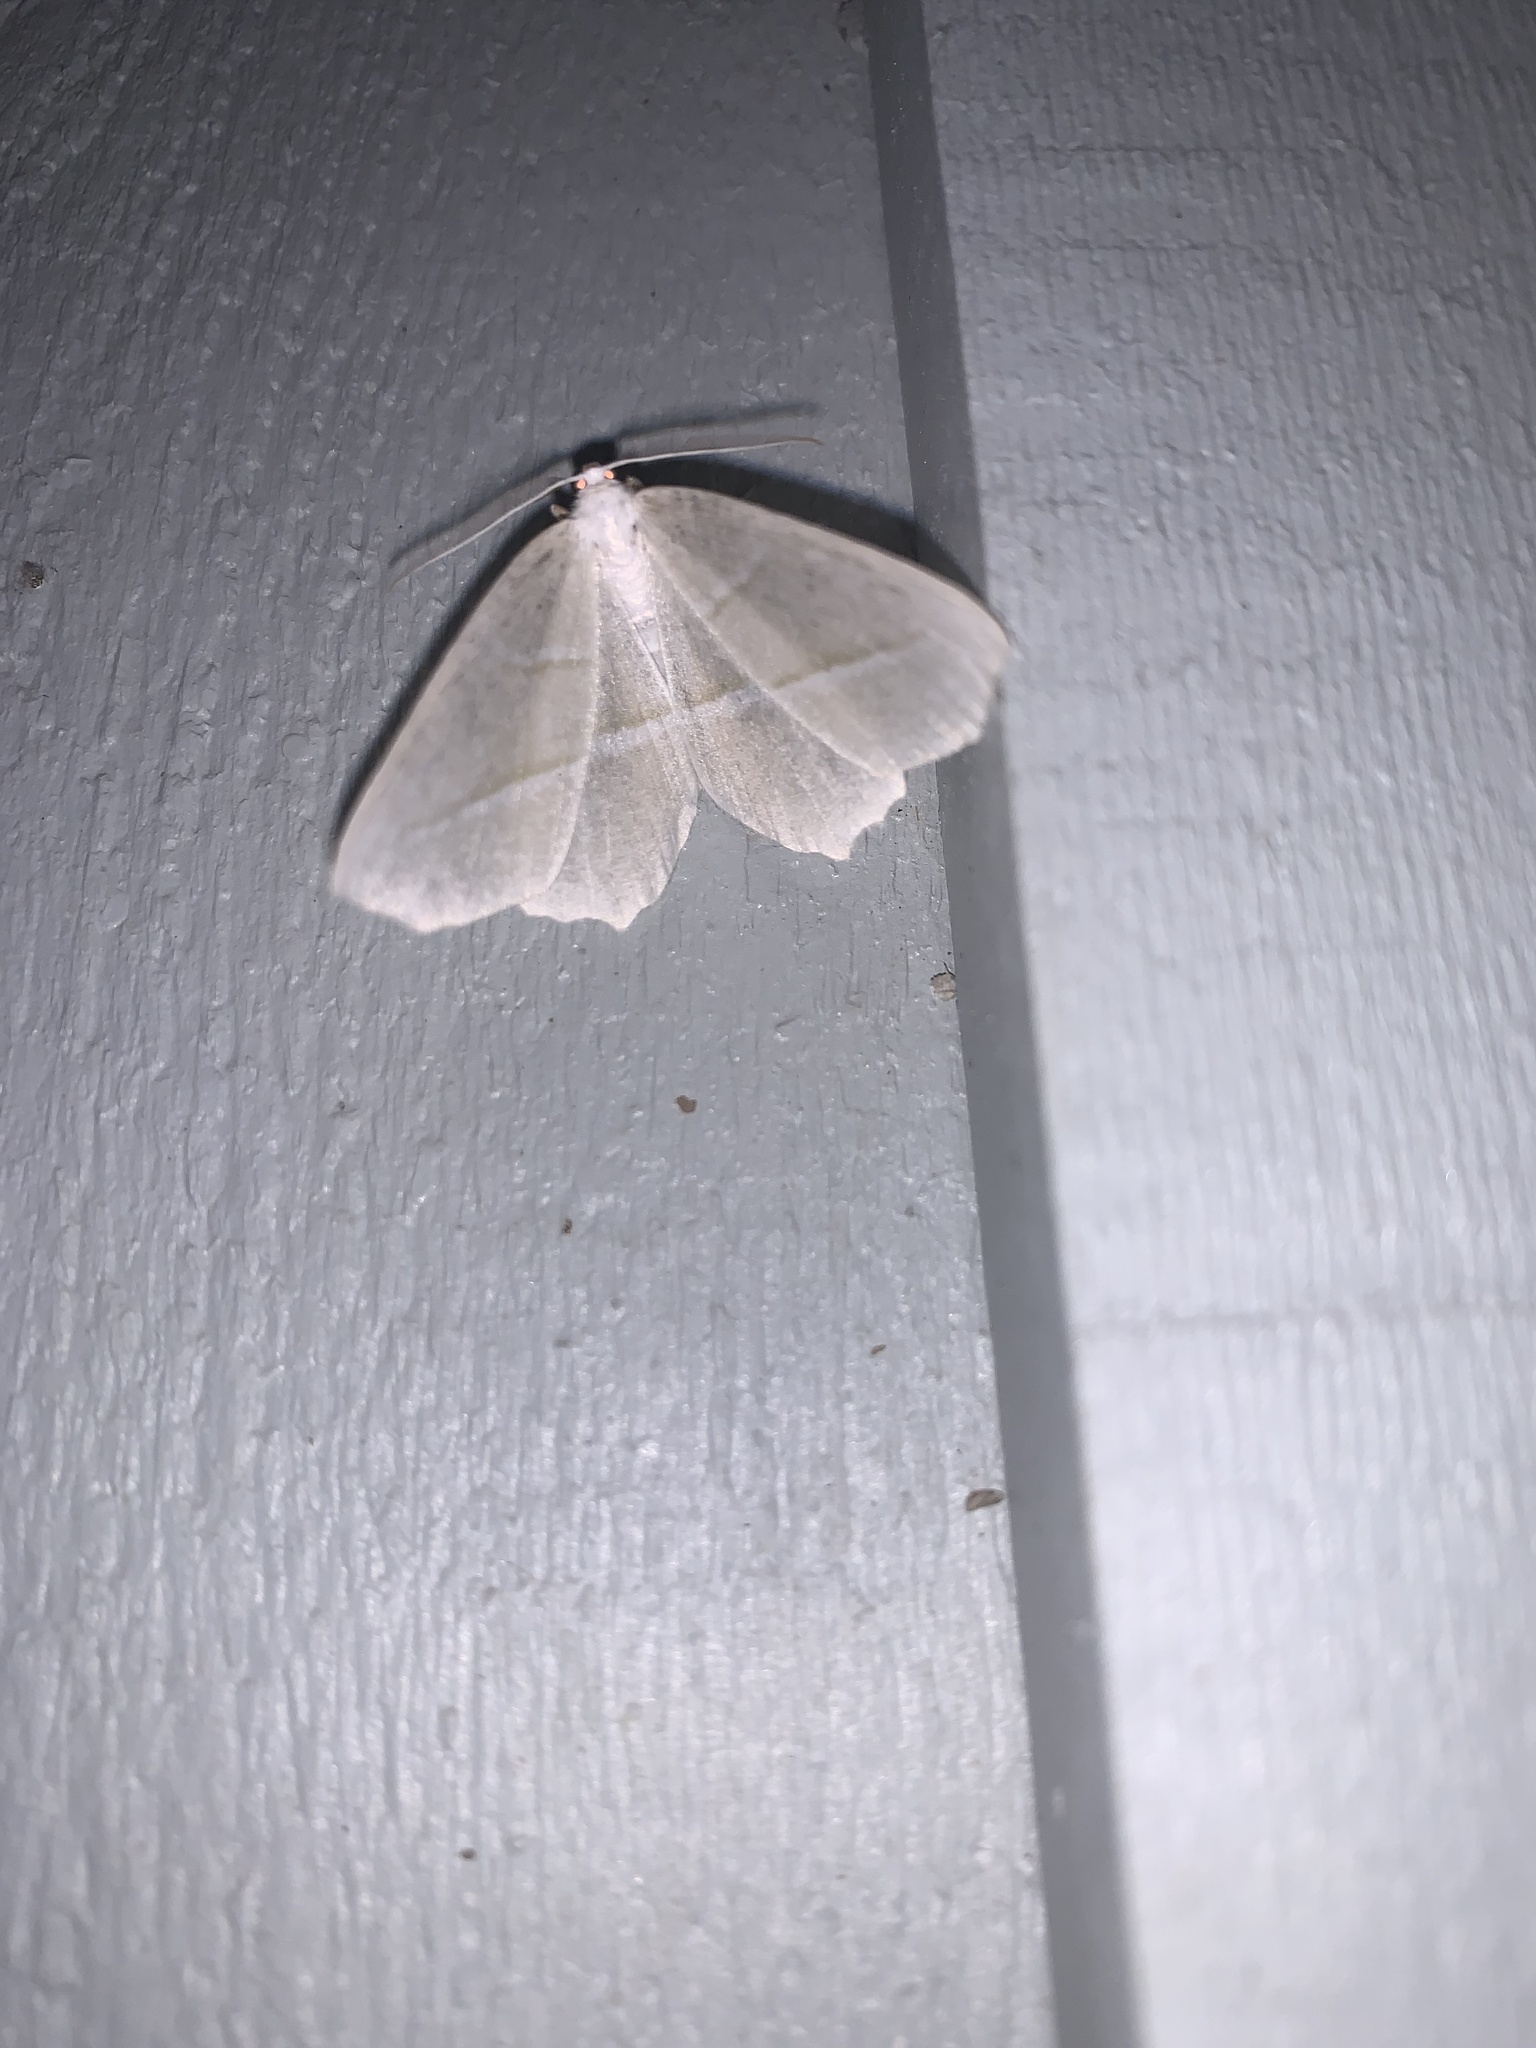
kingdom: Animalia
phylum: Arthropoda
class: Insecta
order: Lepidoptera
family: Geometridae
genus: Campaea
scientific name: Campaea perlata
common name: Fringed looper
